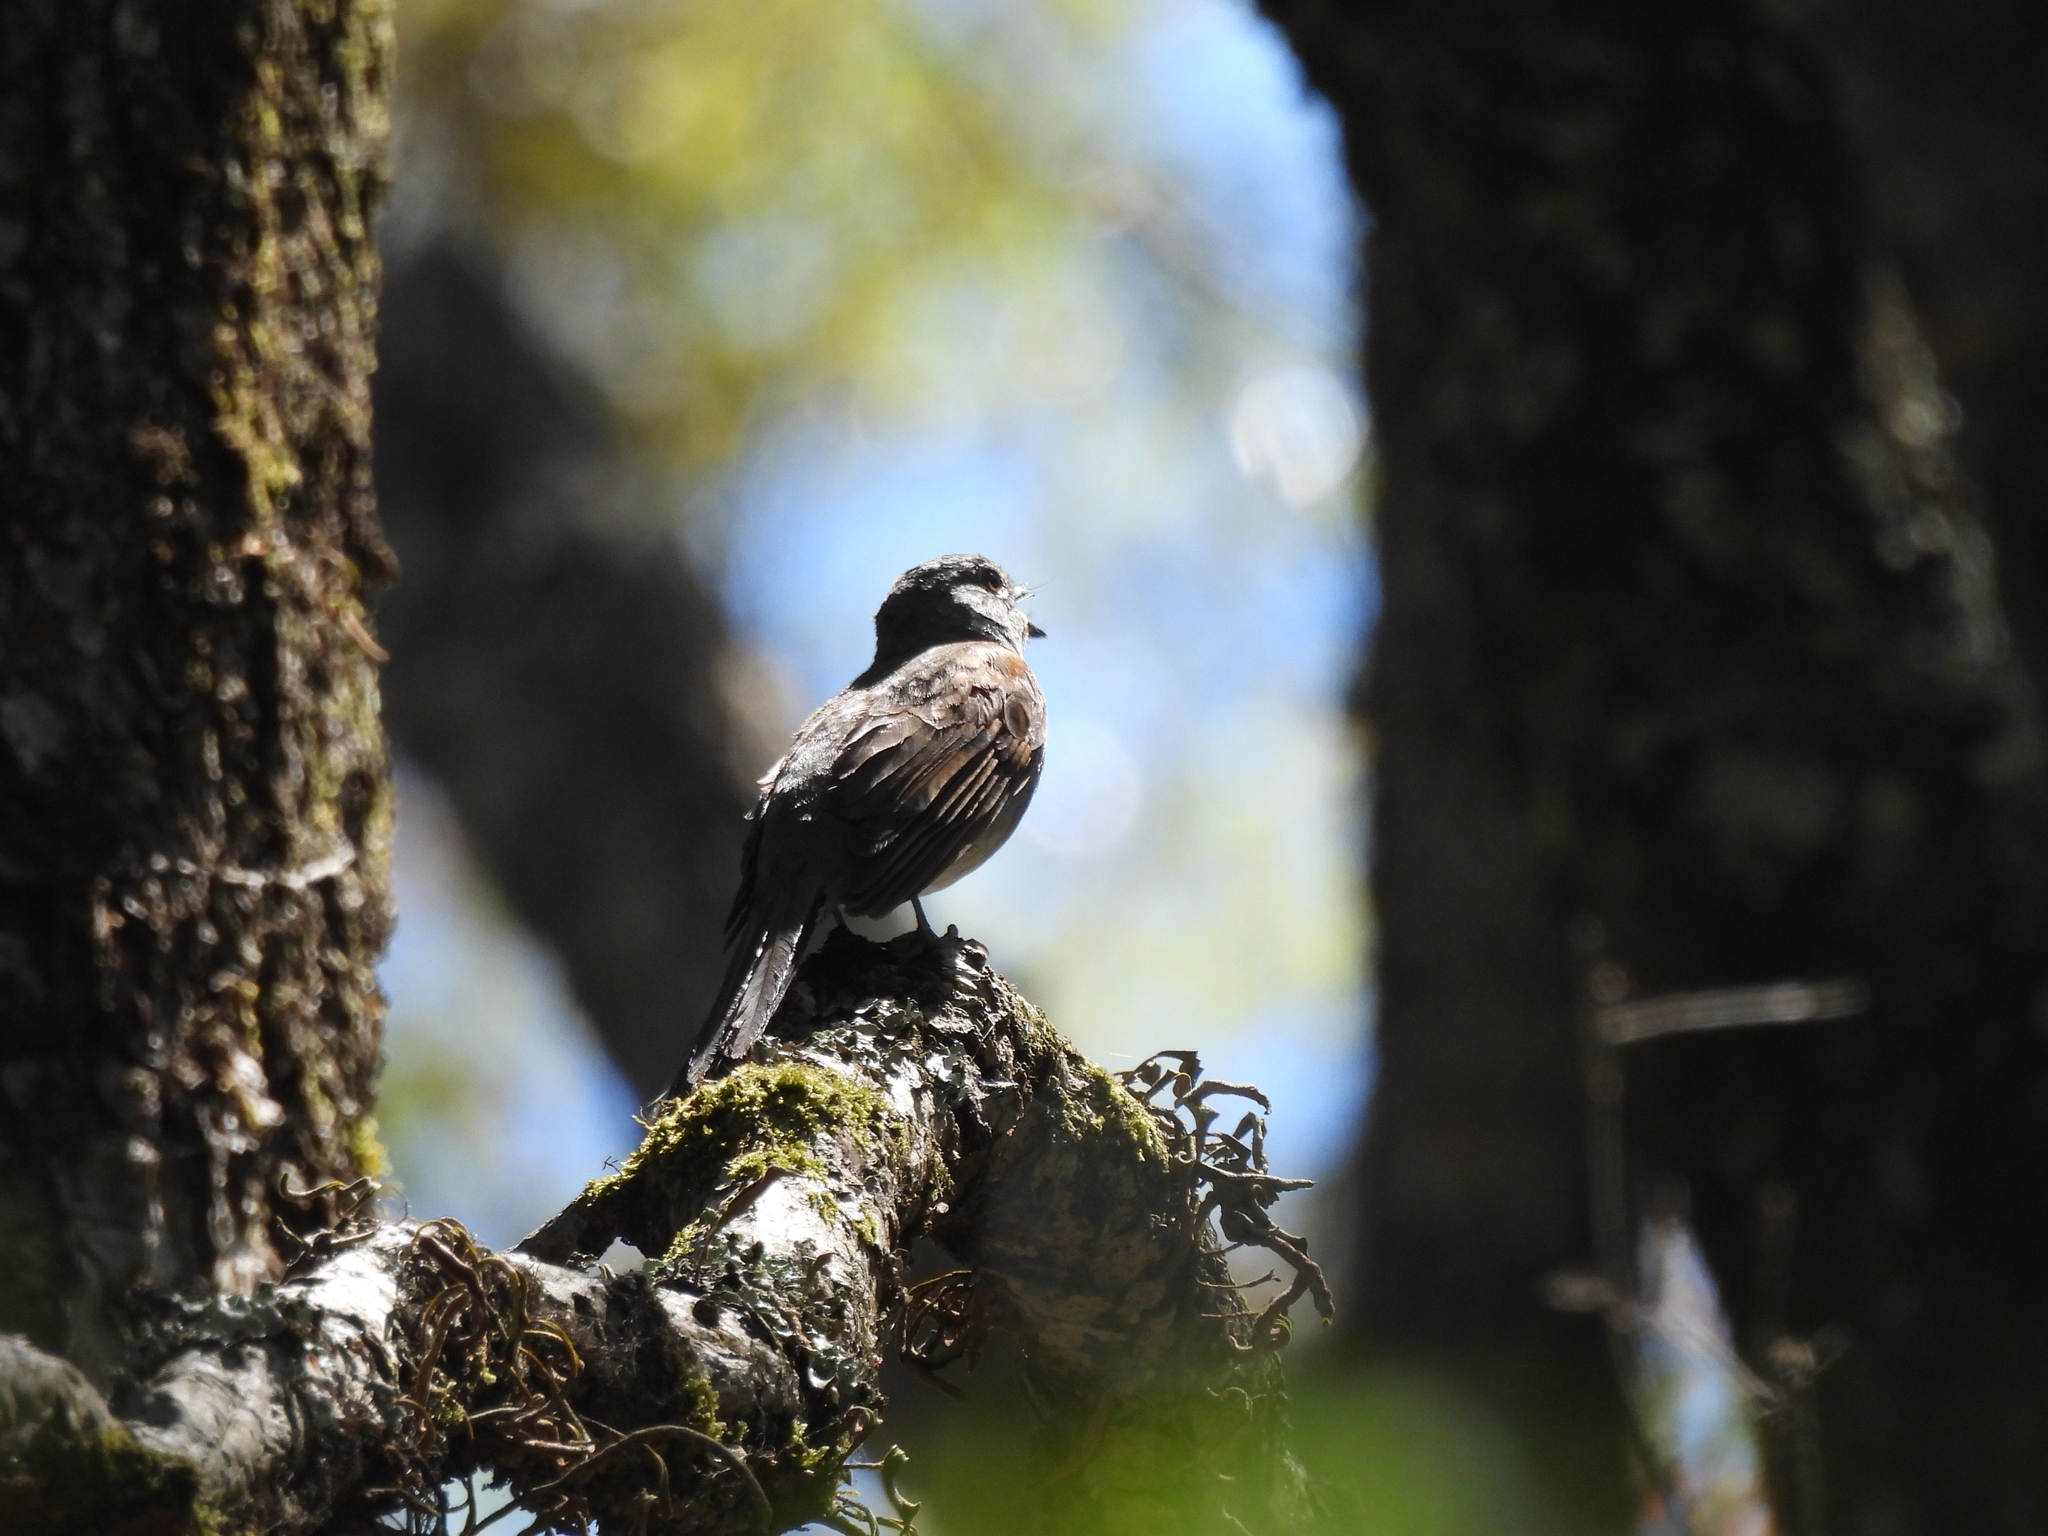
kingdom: Animalia
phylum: Chordata
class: Aves
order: Passeriformes
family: Turdidae
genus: Myadestes
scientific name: Myadestes occidentalis
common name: Brown-backed solitaire
